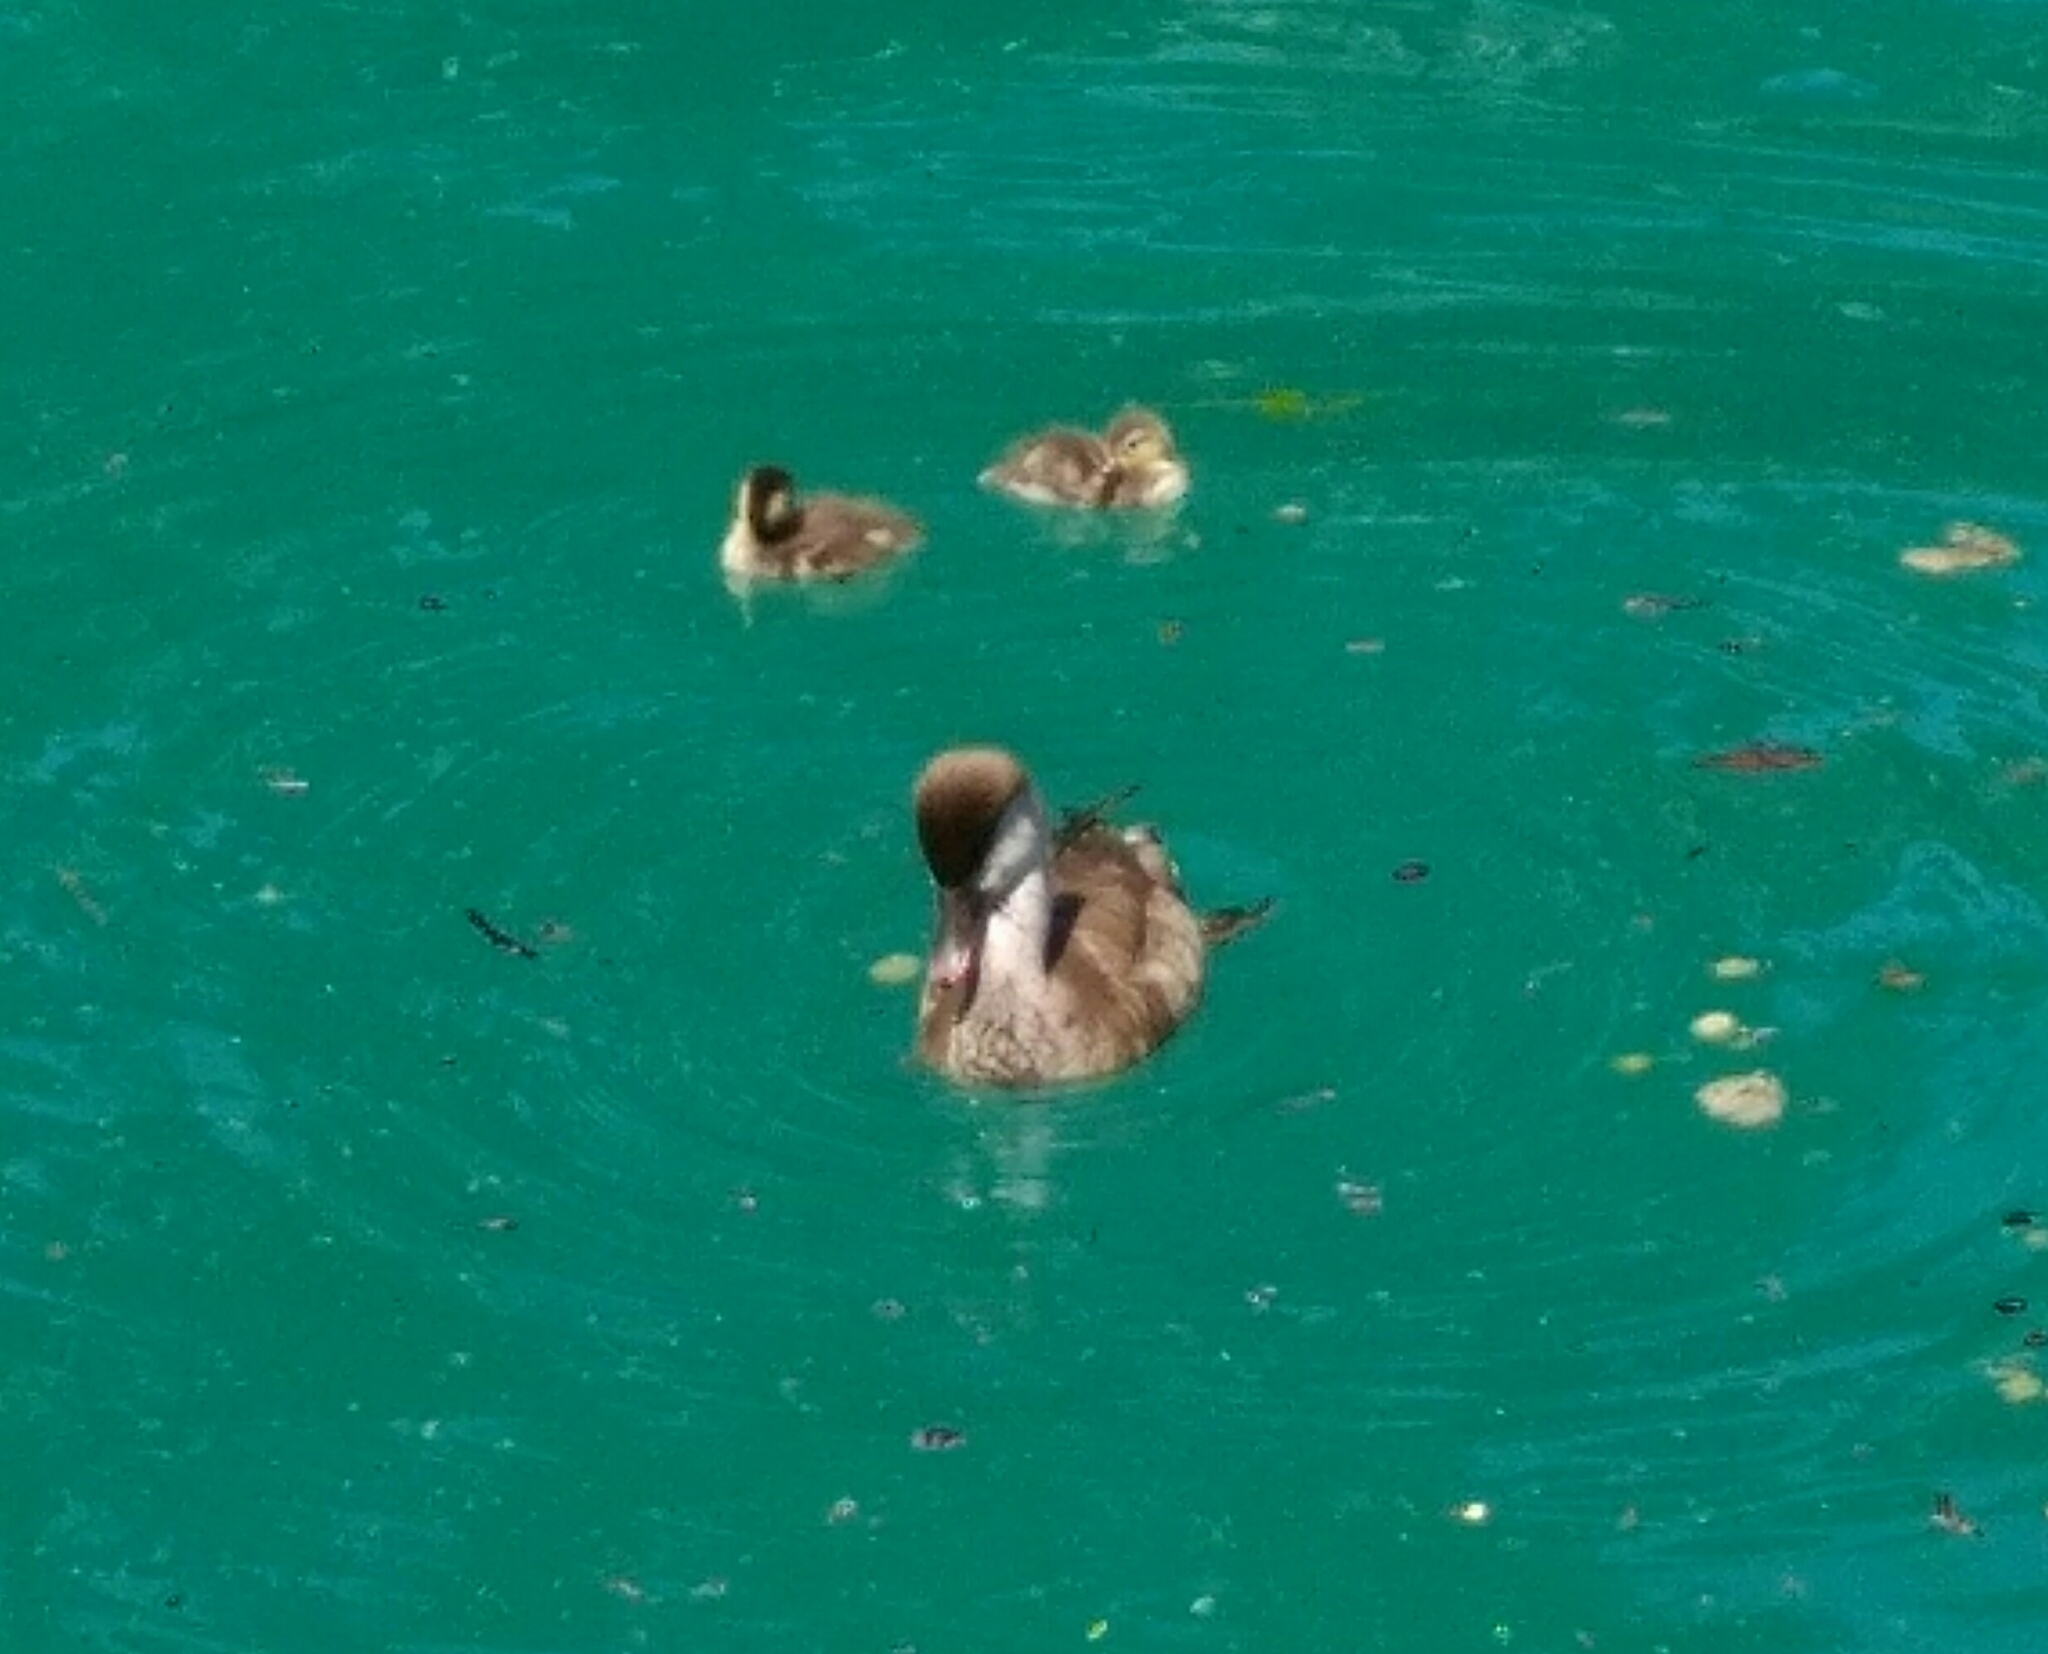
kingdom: Animalia
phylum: Chordata
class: Aves
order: Anseriformes
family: Anatidae
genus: Netta
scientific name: Netta rufina
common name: Red-crested pochard
